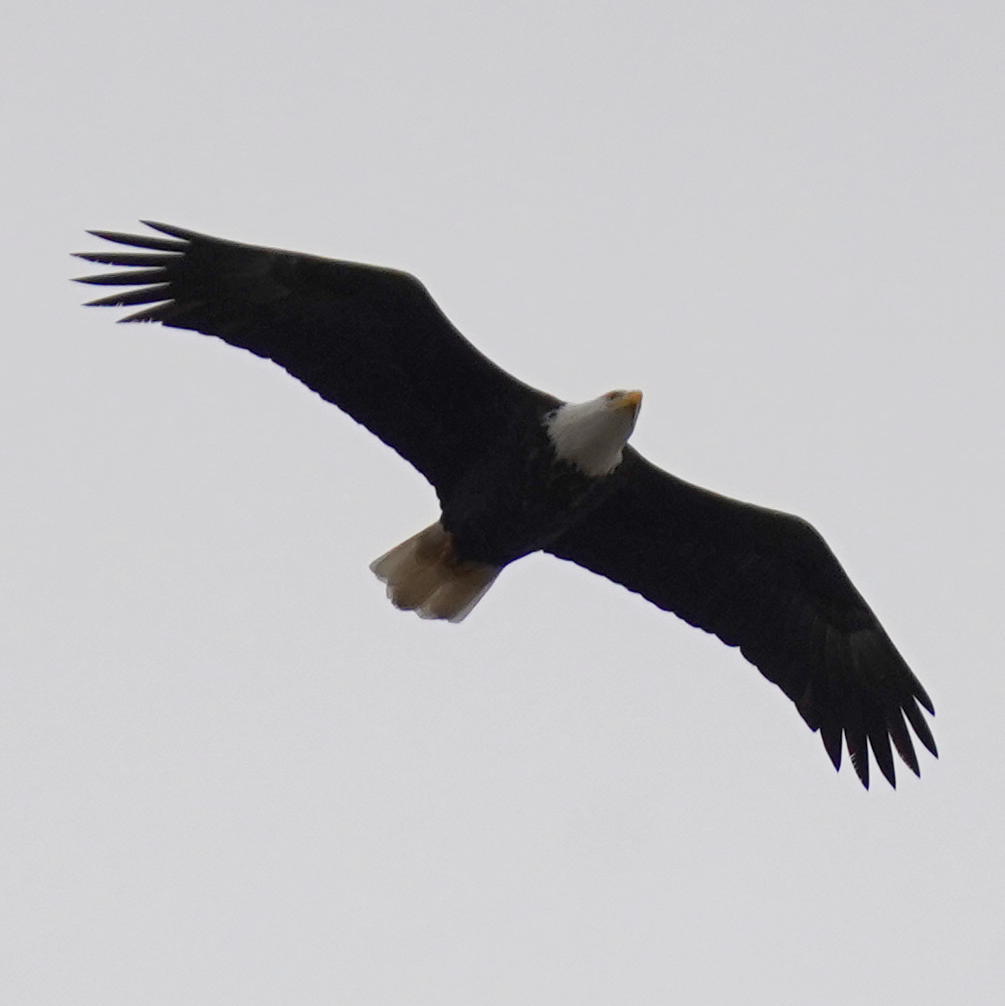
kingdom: Animalia
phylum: Chordata
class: Aves
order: Accipitriformes
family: Accipitridae
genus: Haliaeetus
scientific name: Haliaeetus leucocephalus
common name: Bald eagle
